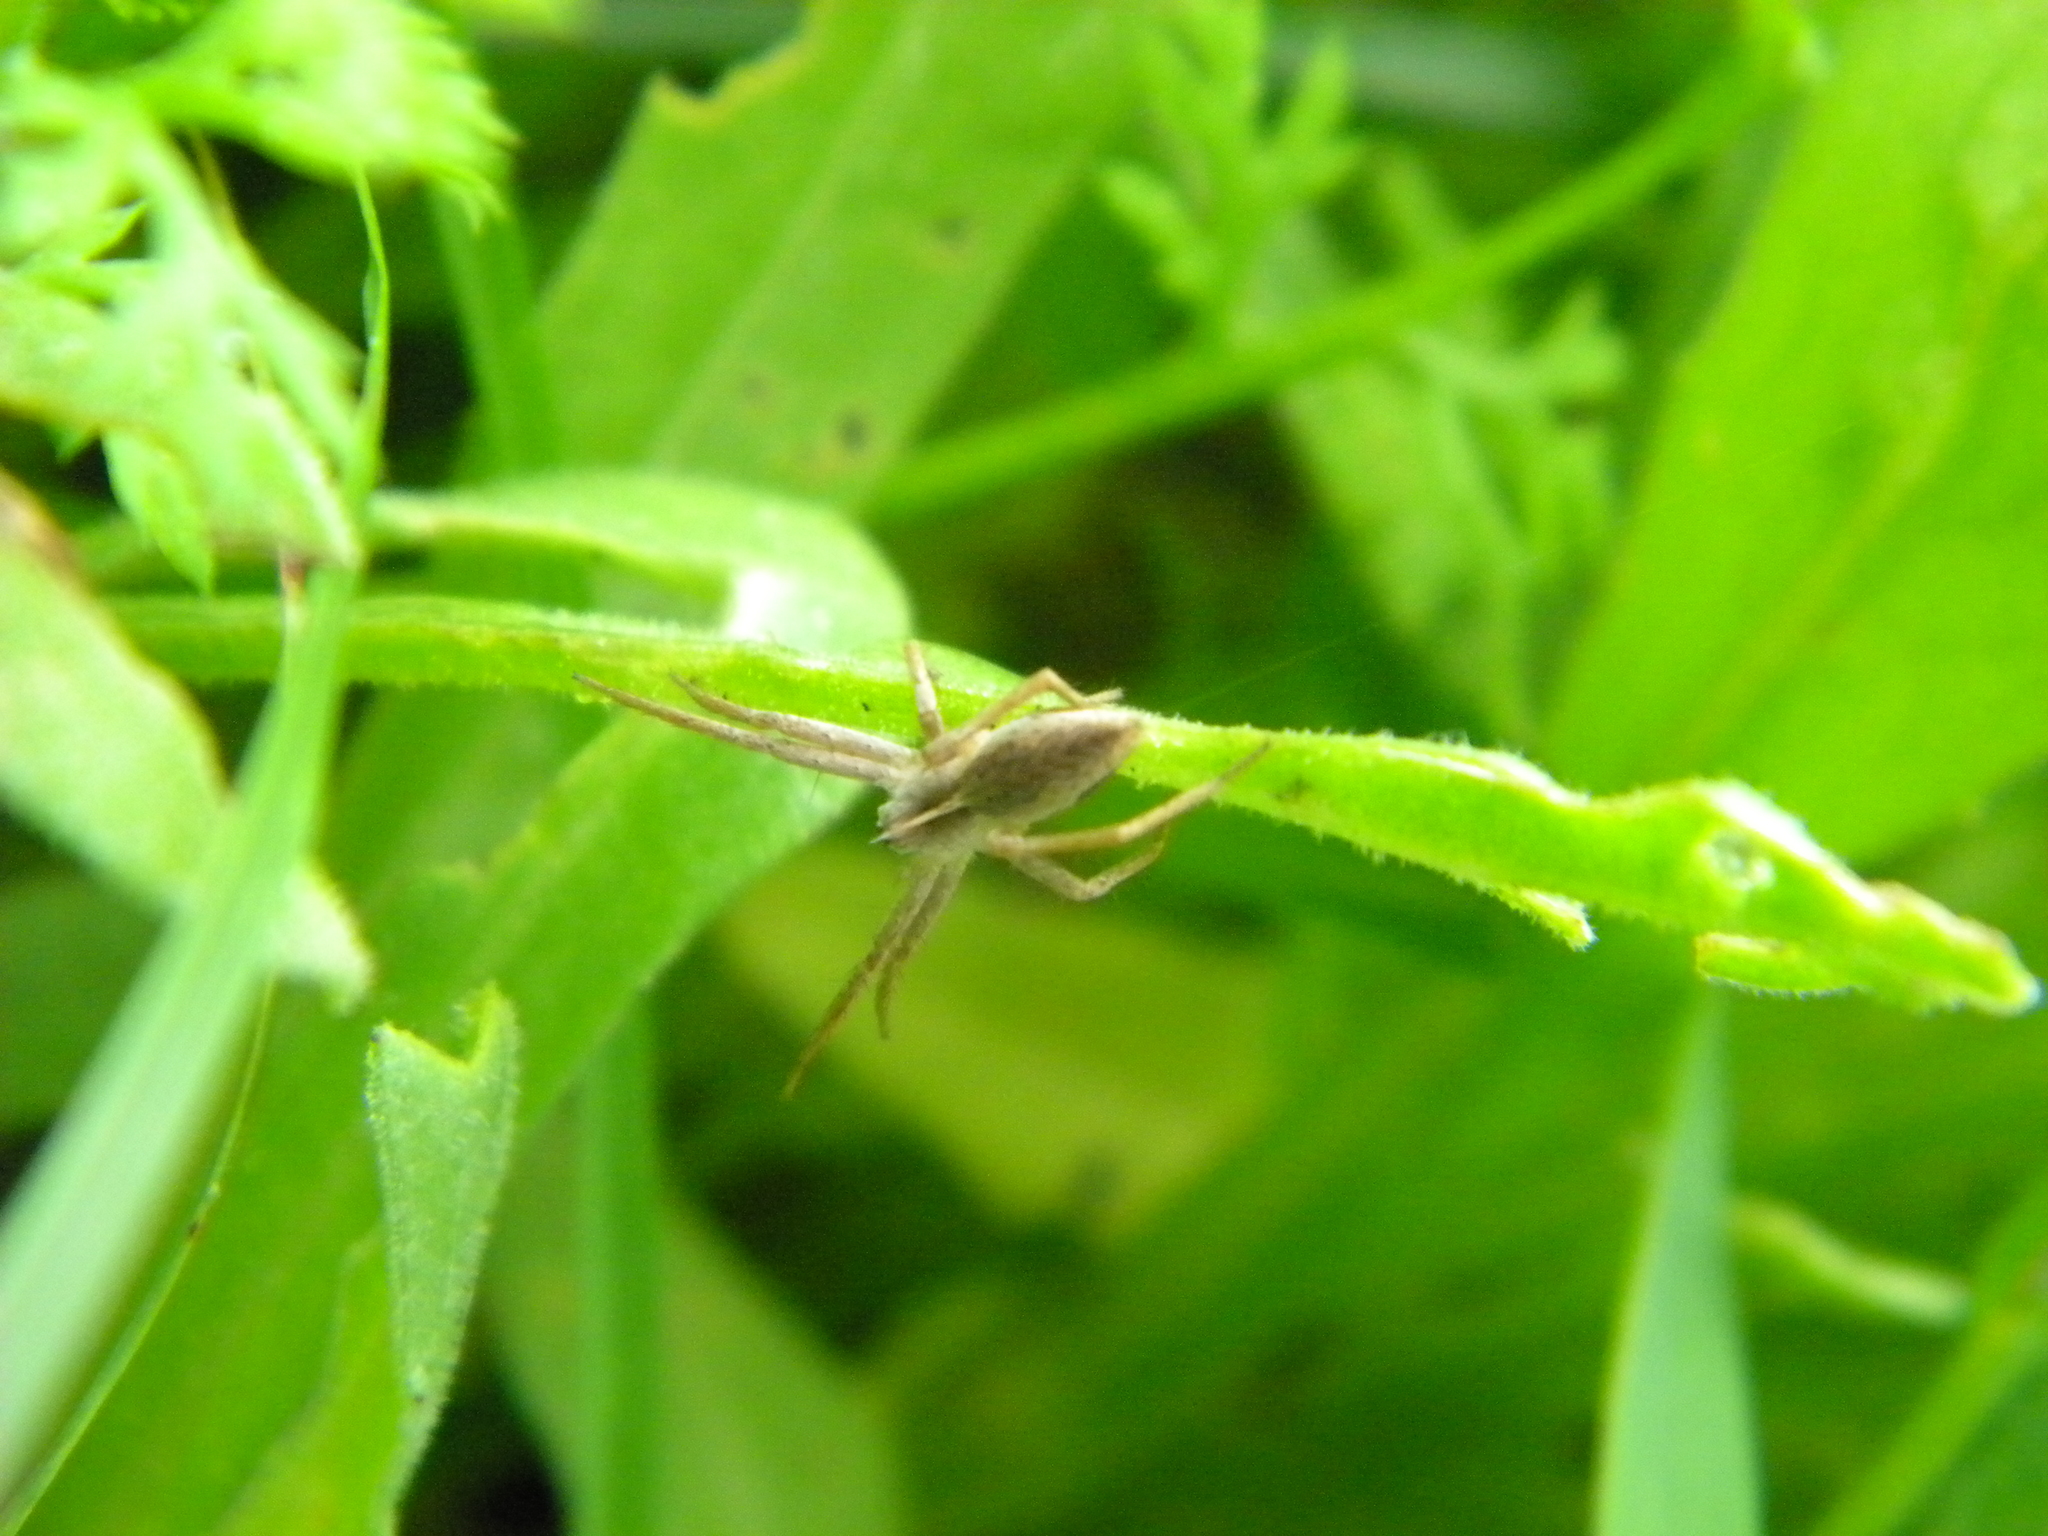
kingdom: Animalia
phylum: Arthropoda
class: Arachnida
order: Araneae
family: Pisauridae
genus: Pisaura
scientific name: Pisaura mirabilis
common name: Tent spider
